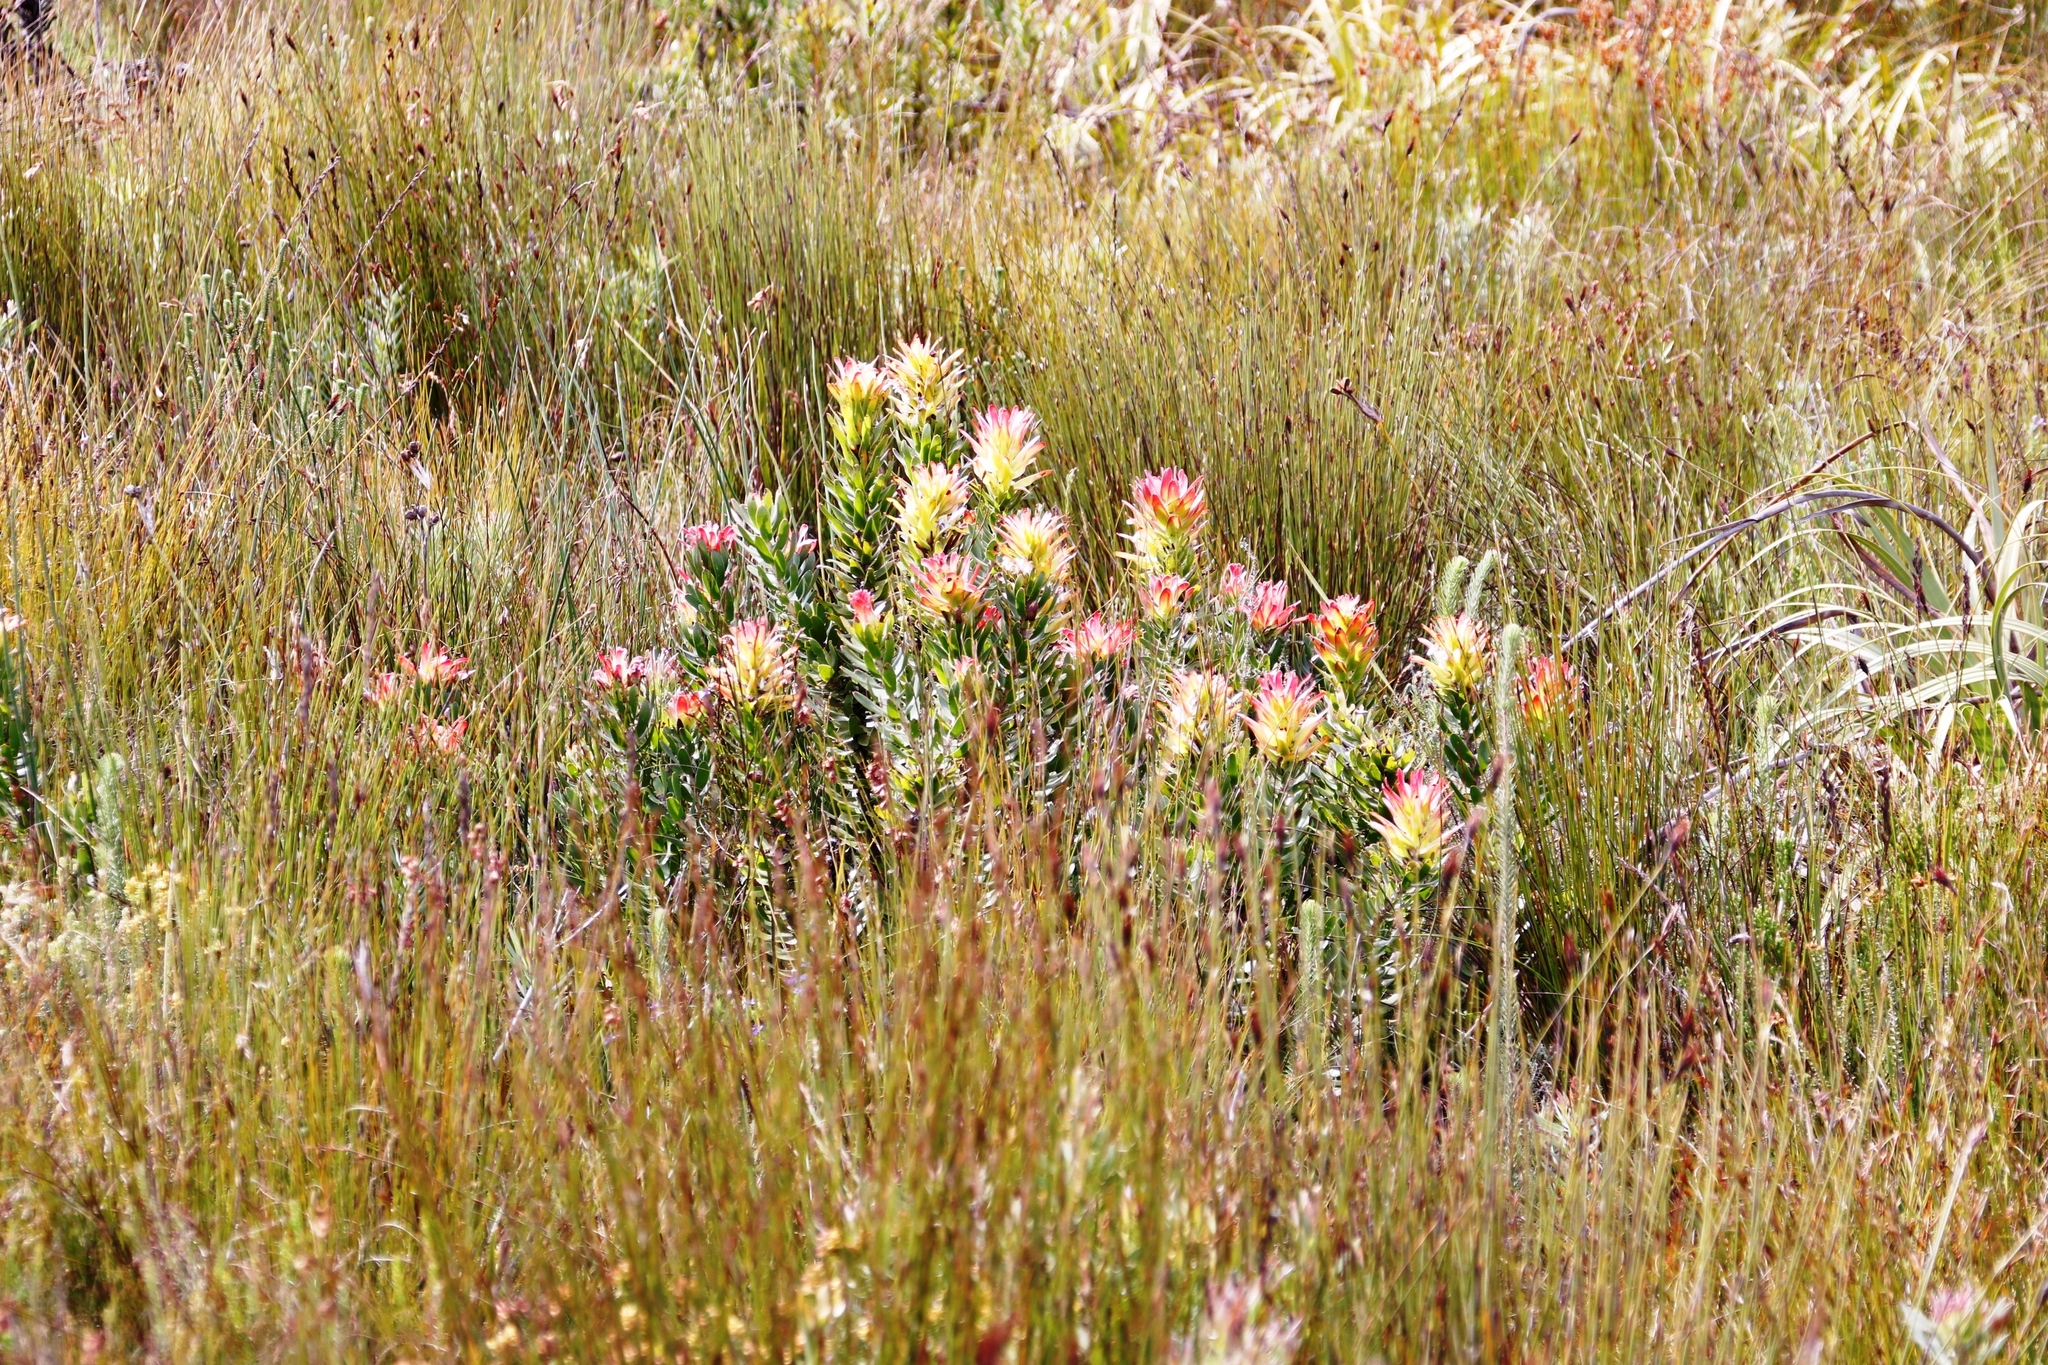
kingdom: Plantae
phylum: Tracheophyta
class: Magnoliopsida
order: Proteales
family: Proteaceae
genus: Mimetes
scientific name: Mimetes cucullatus
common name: Common pagoda
